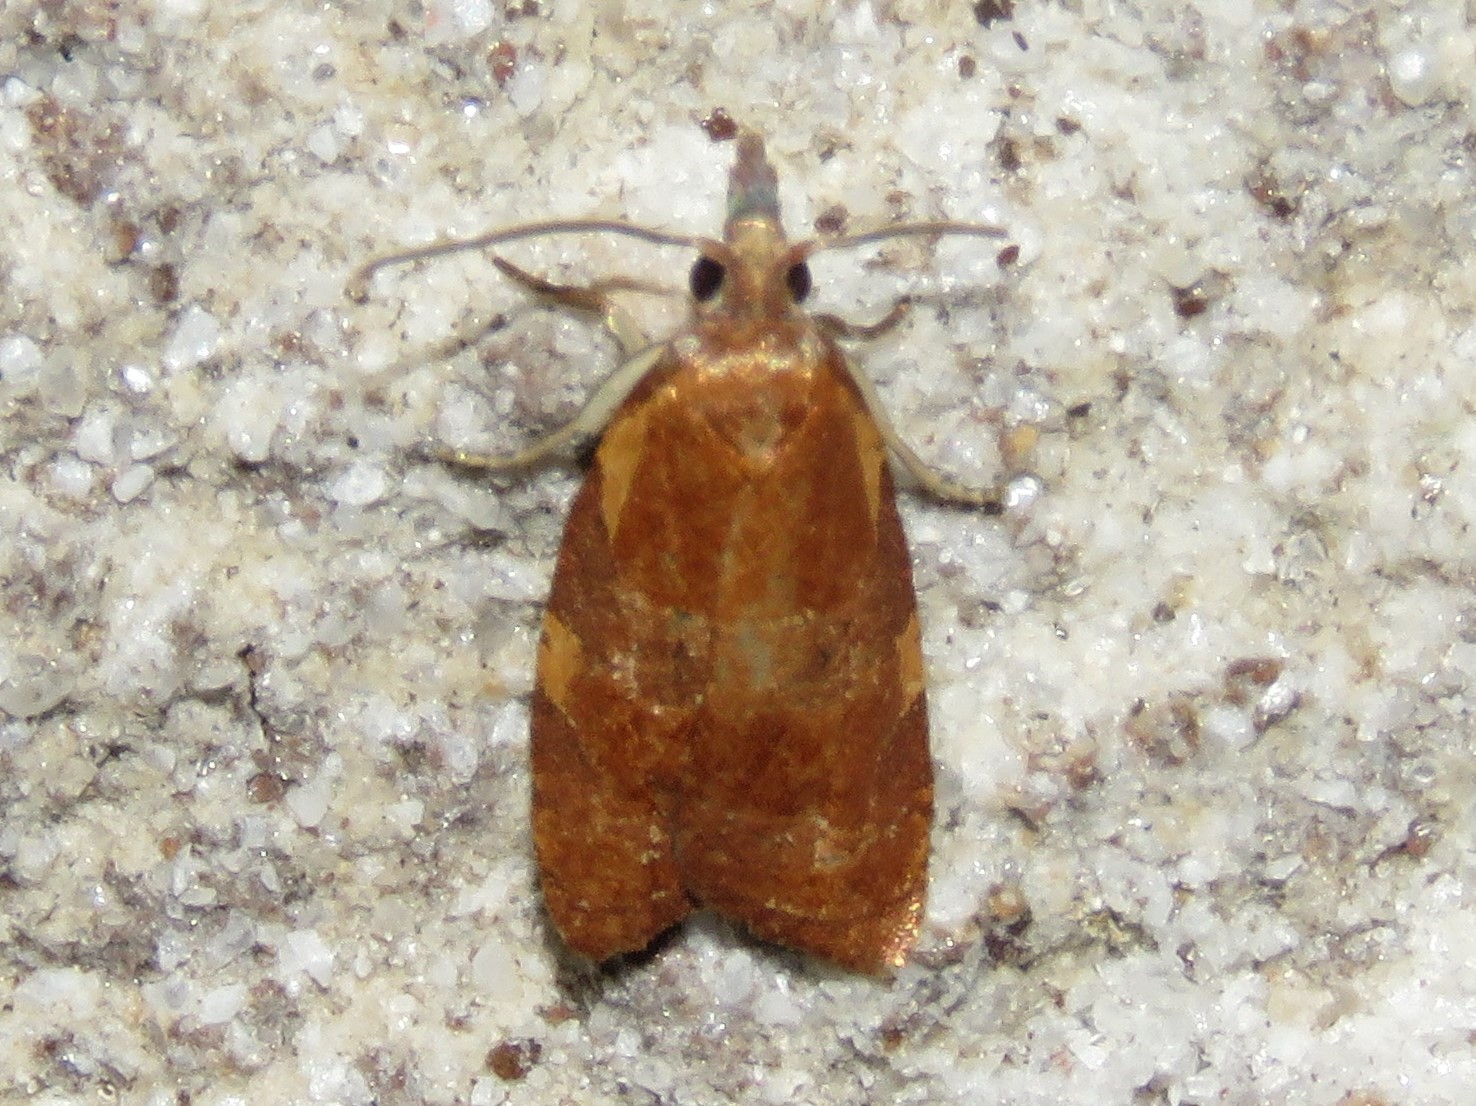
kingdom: Animalia
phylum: Arthropoda
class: Insecta
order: Lepidoptera
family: Tortricidae
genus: Cenopis
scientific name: Cenopis diluticostana
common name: Spring dead-leaf roller moth
